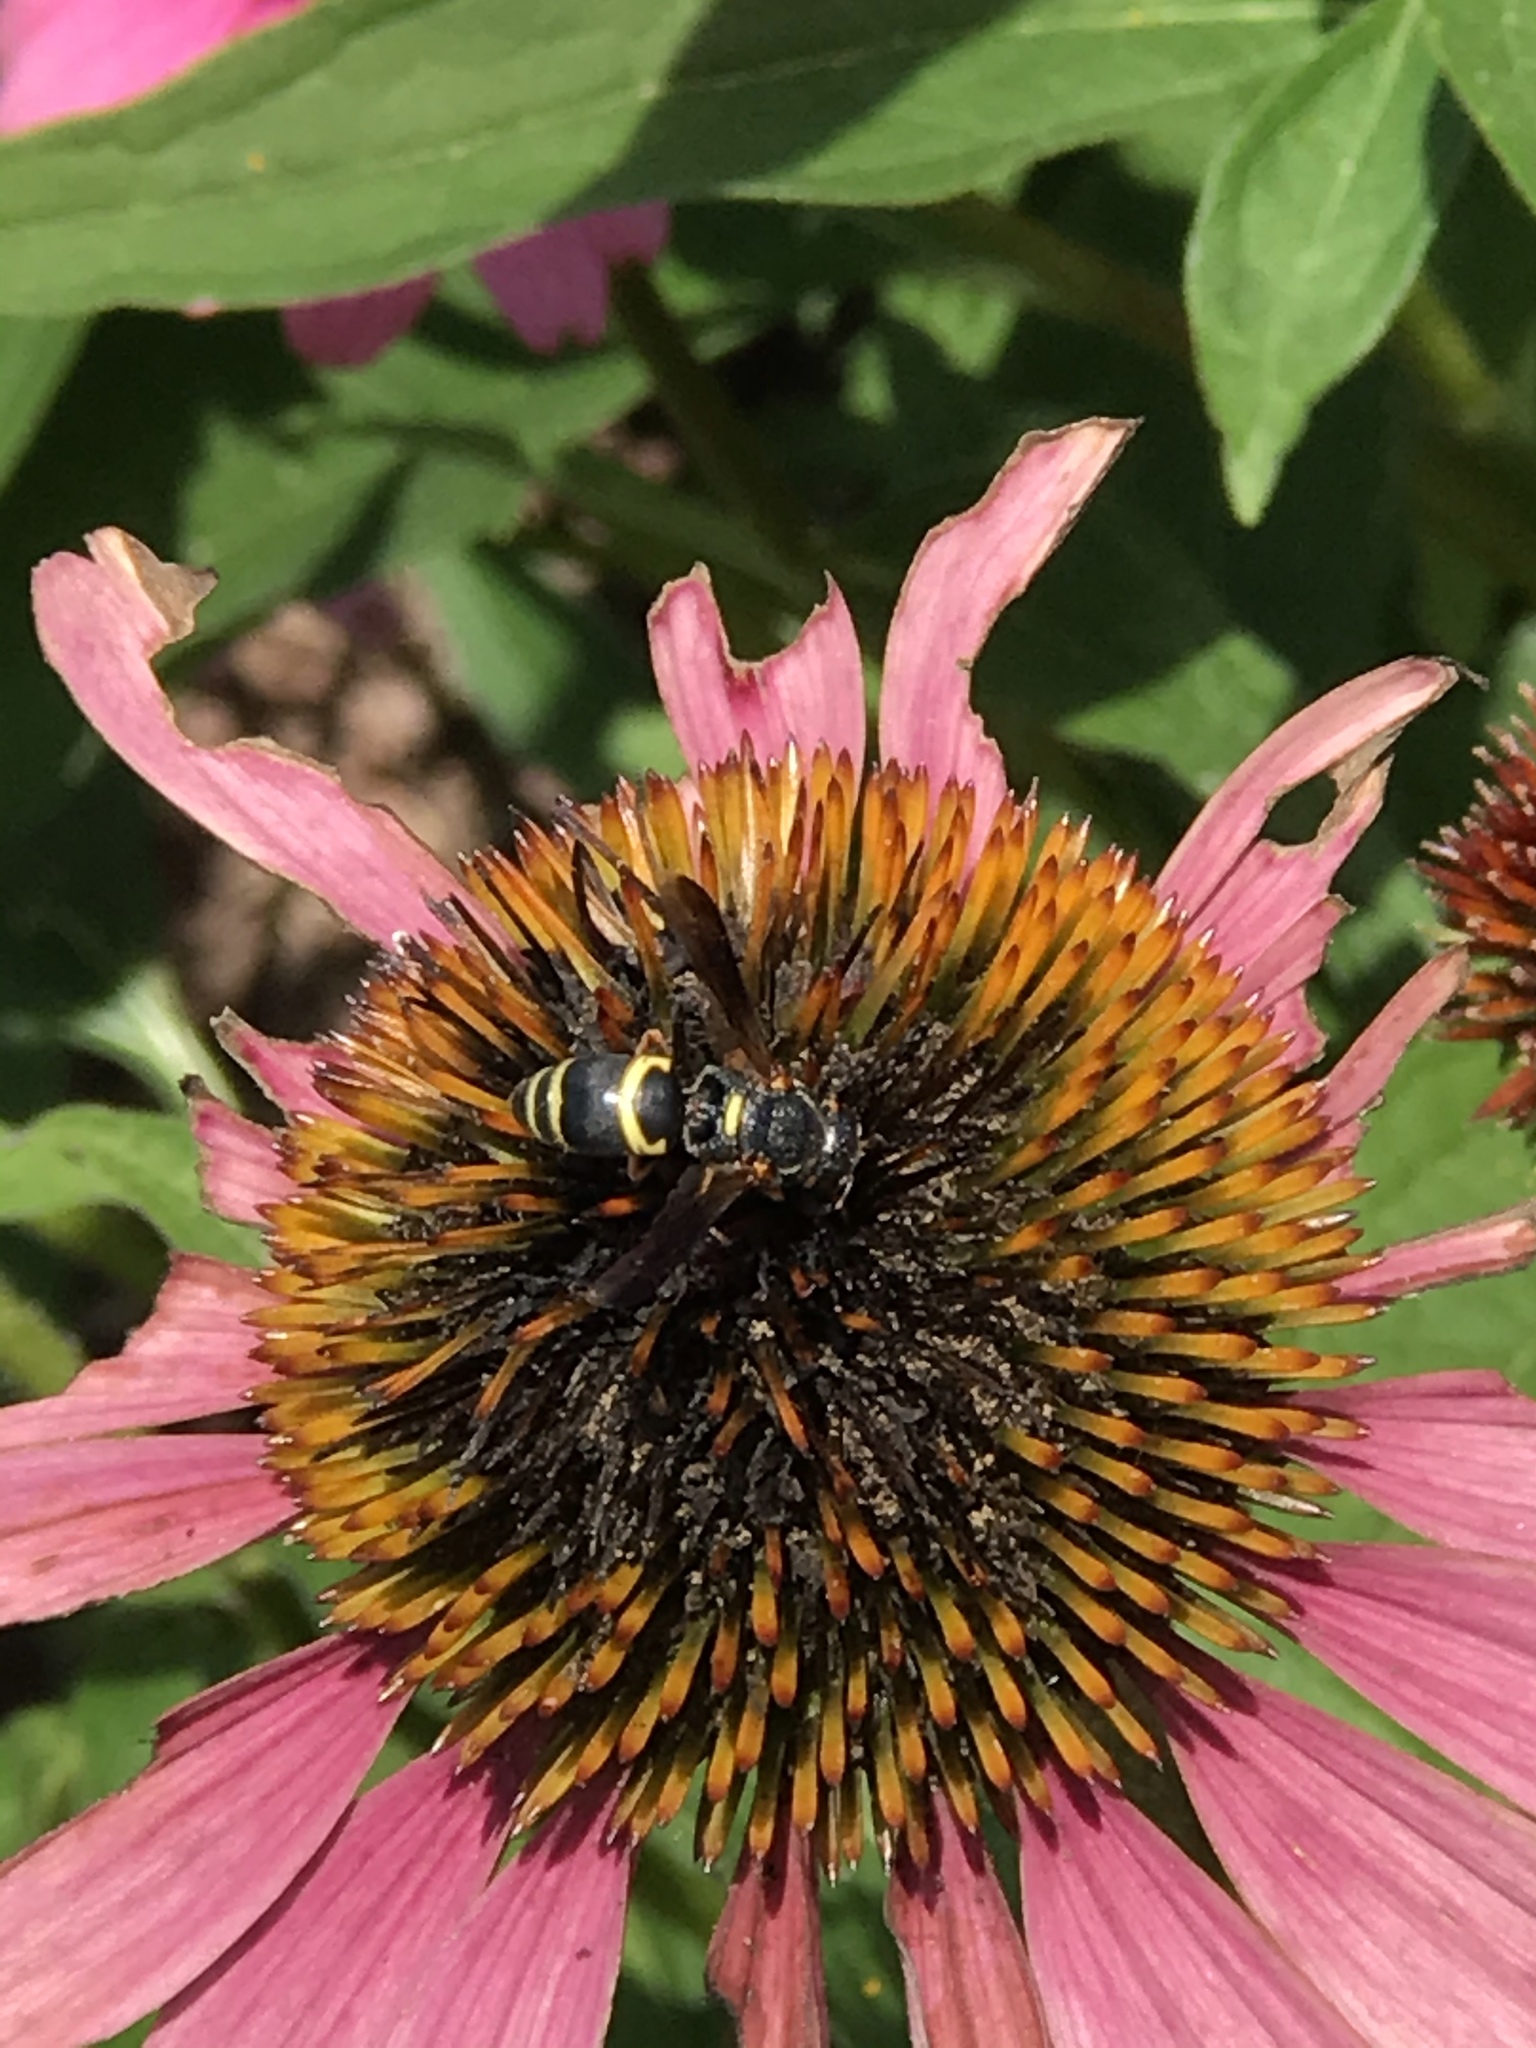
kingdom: Animalia
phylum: Arthropoda
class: Insecta
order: Hymenoptera
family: Eumenidae
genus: Euodynerus
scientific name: Euodynerus hidalgo
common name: Wasp
